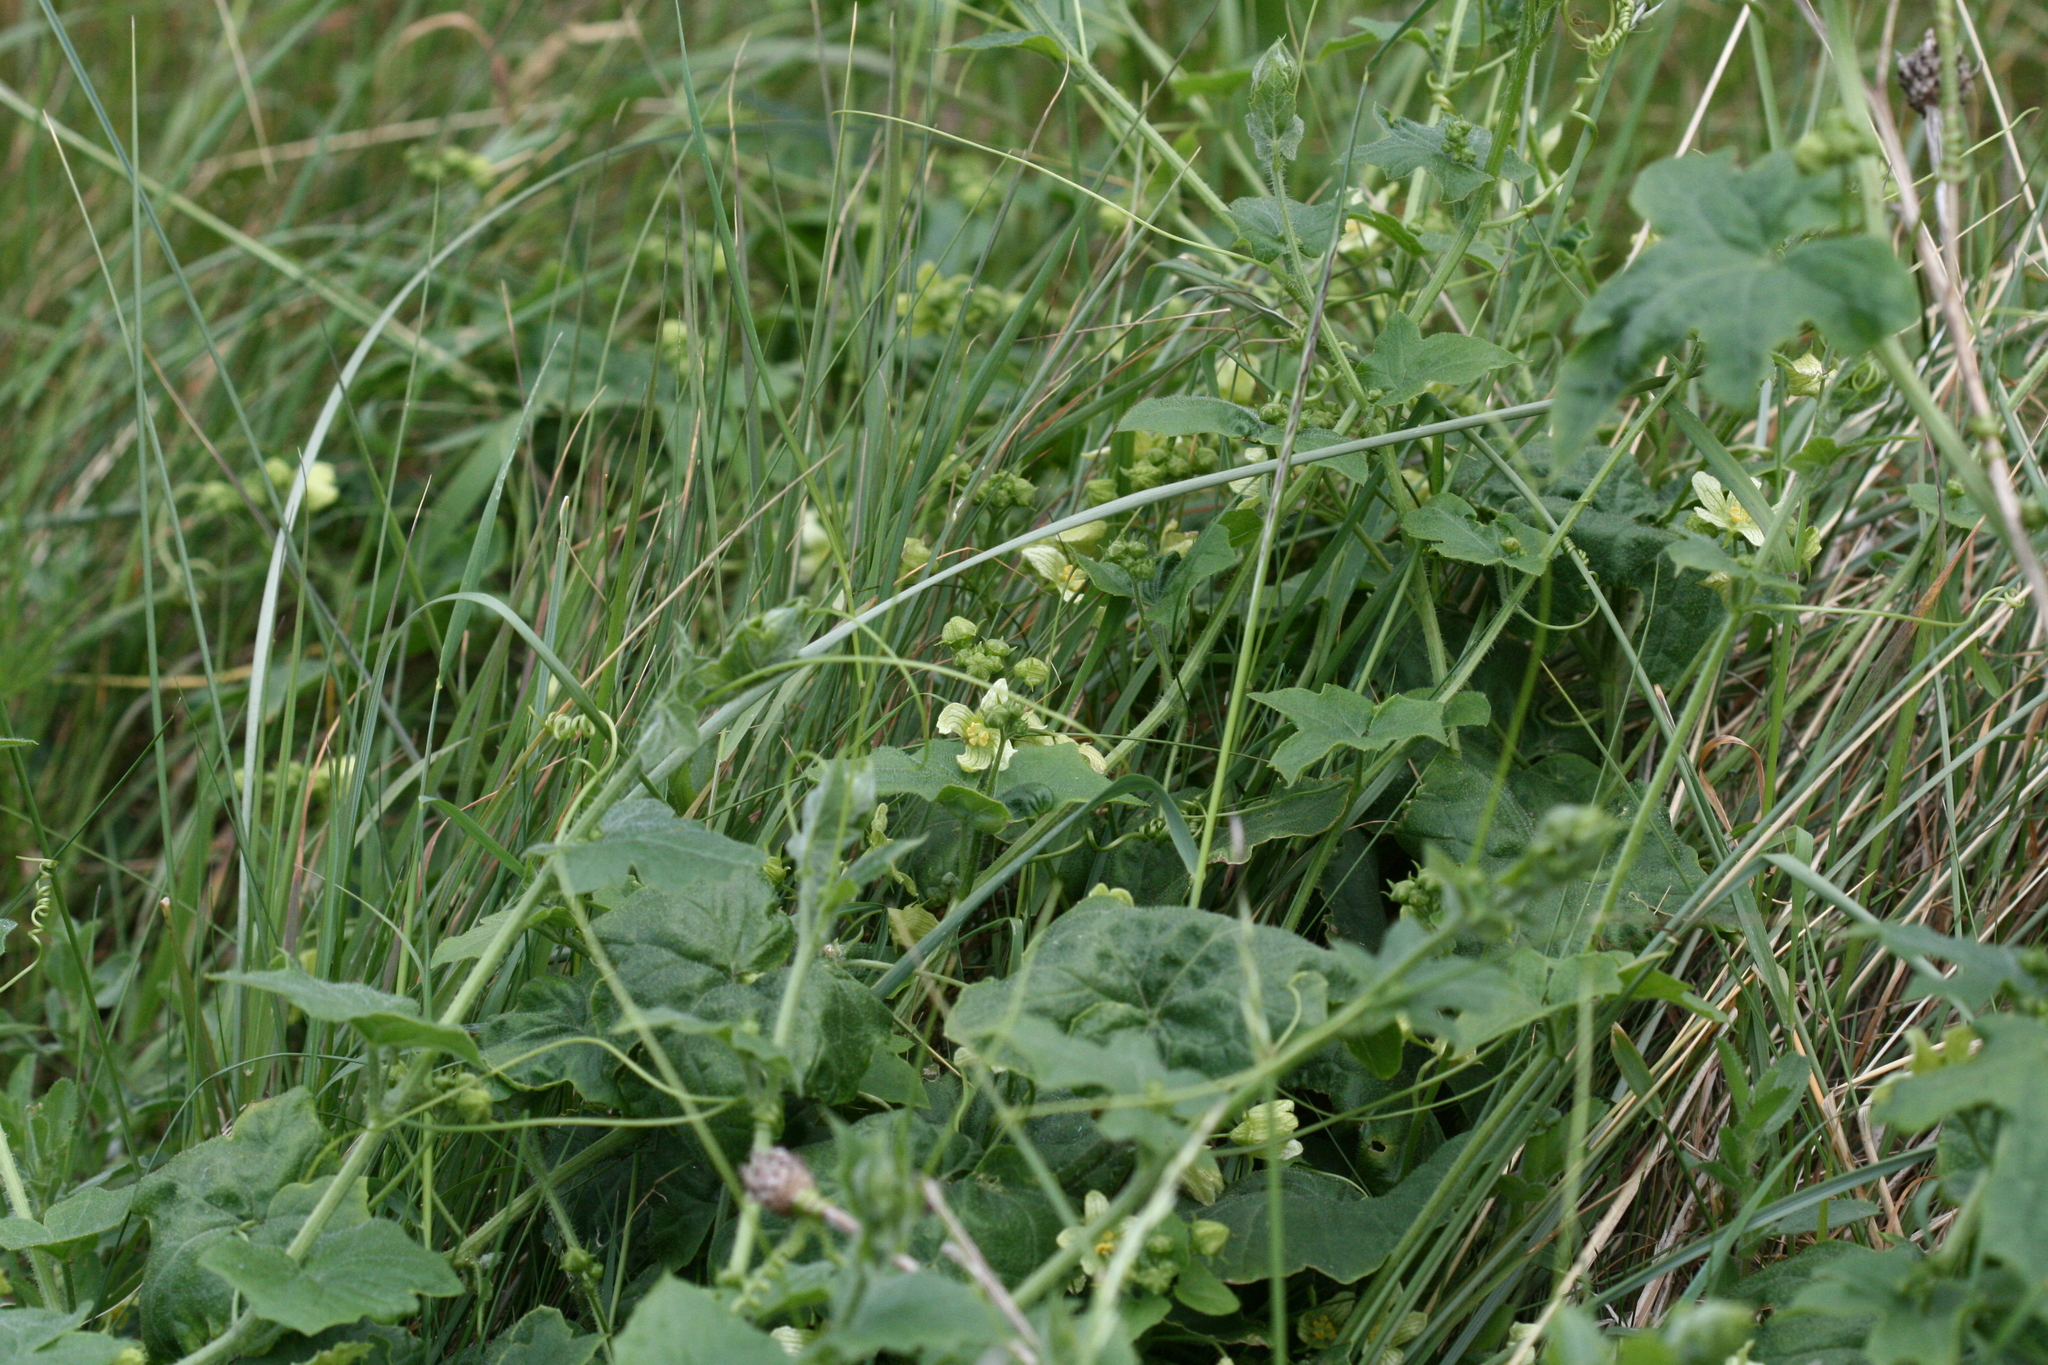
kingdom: Plantae
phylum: Tracheophyta
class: Magnoliopsida
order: Cucurbitales
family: Cucurbitaceae
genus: Bryonia
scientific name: Bryonia dioica
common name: White bryony
